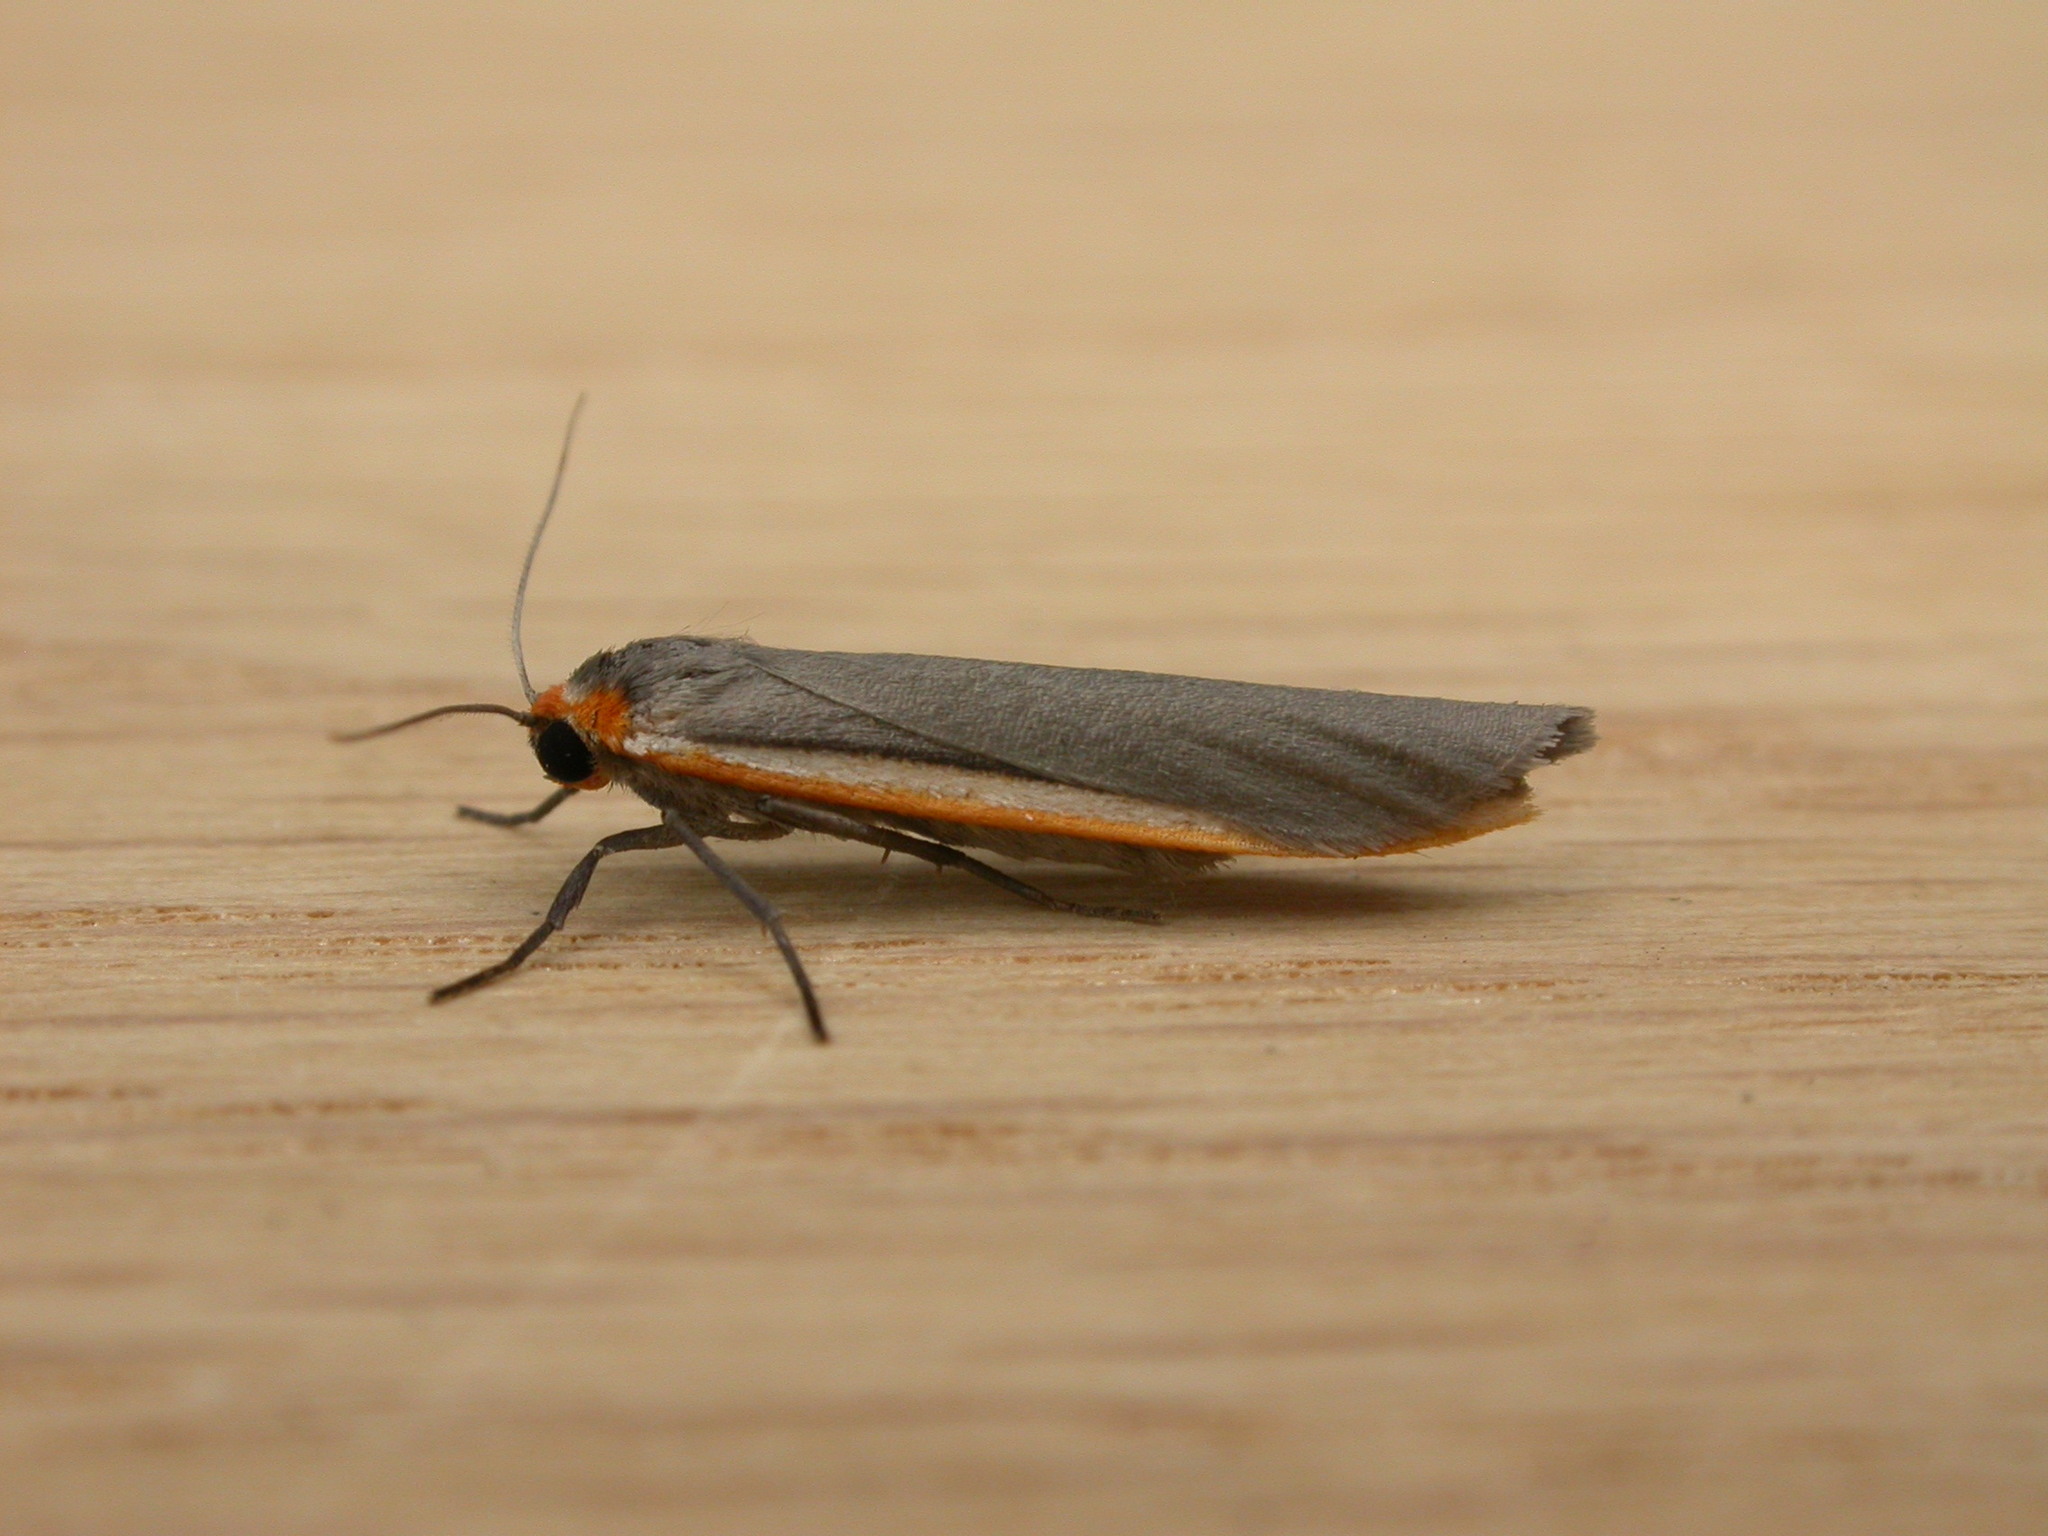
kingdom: Animalia
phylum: Arthropoda
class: Insecta
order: Lepidoptera
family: Erebidae
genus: Palaeosia
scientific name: Palaeosia bicosta
